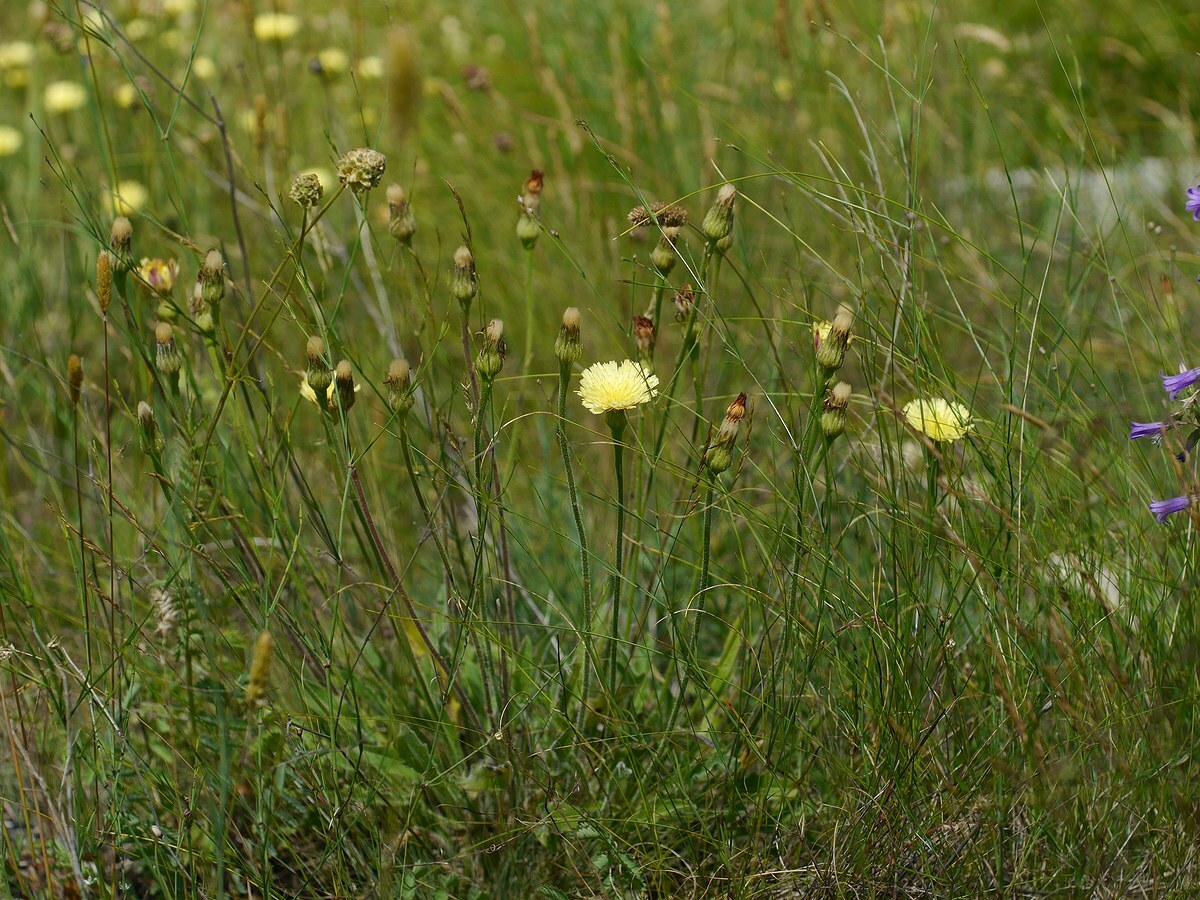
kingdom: Plantae
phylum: Tracheophyta
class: Magnoliopsida
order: Asterales
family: Asteraceae
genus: Leontodon
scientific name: Leontodon biscutellifolius
